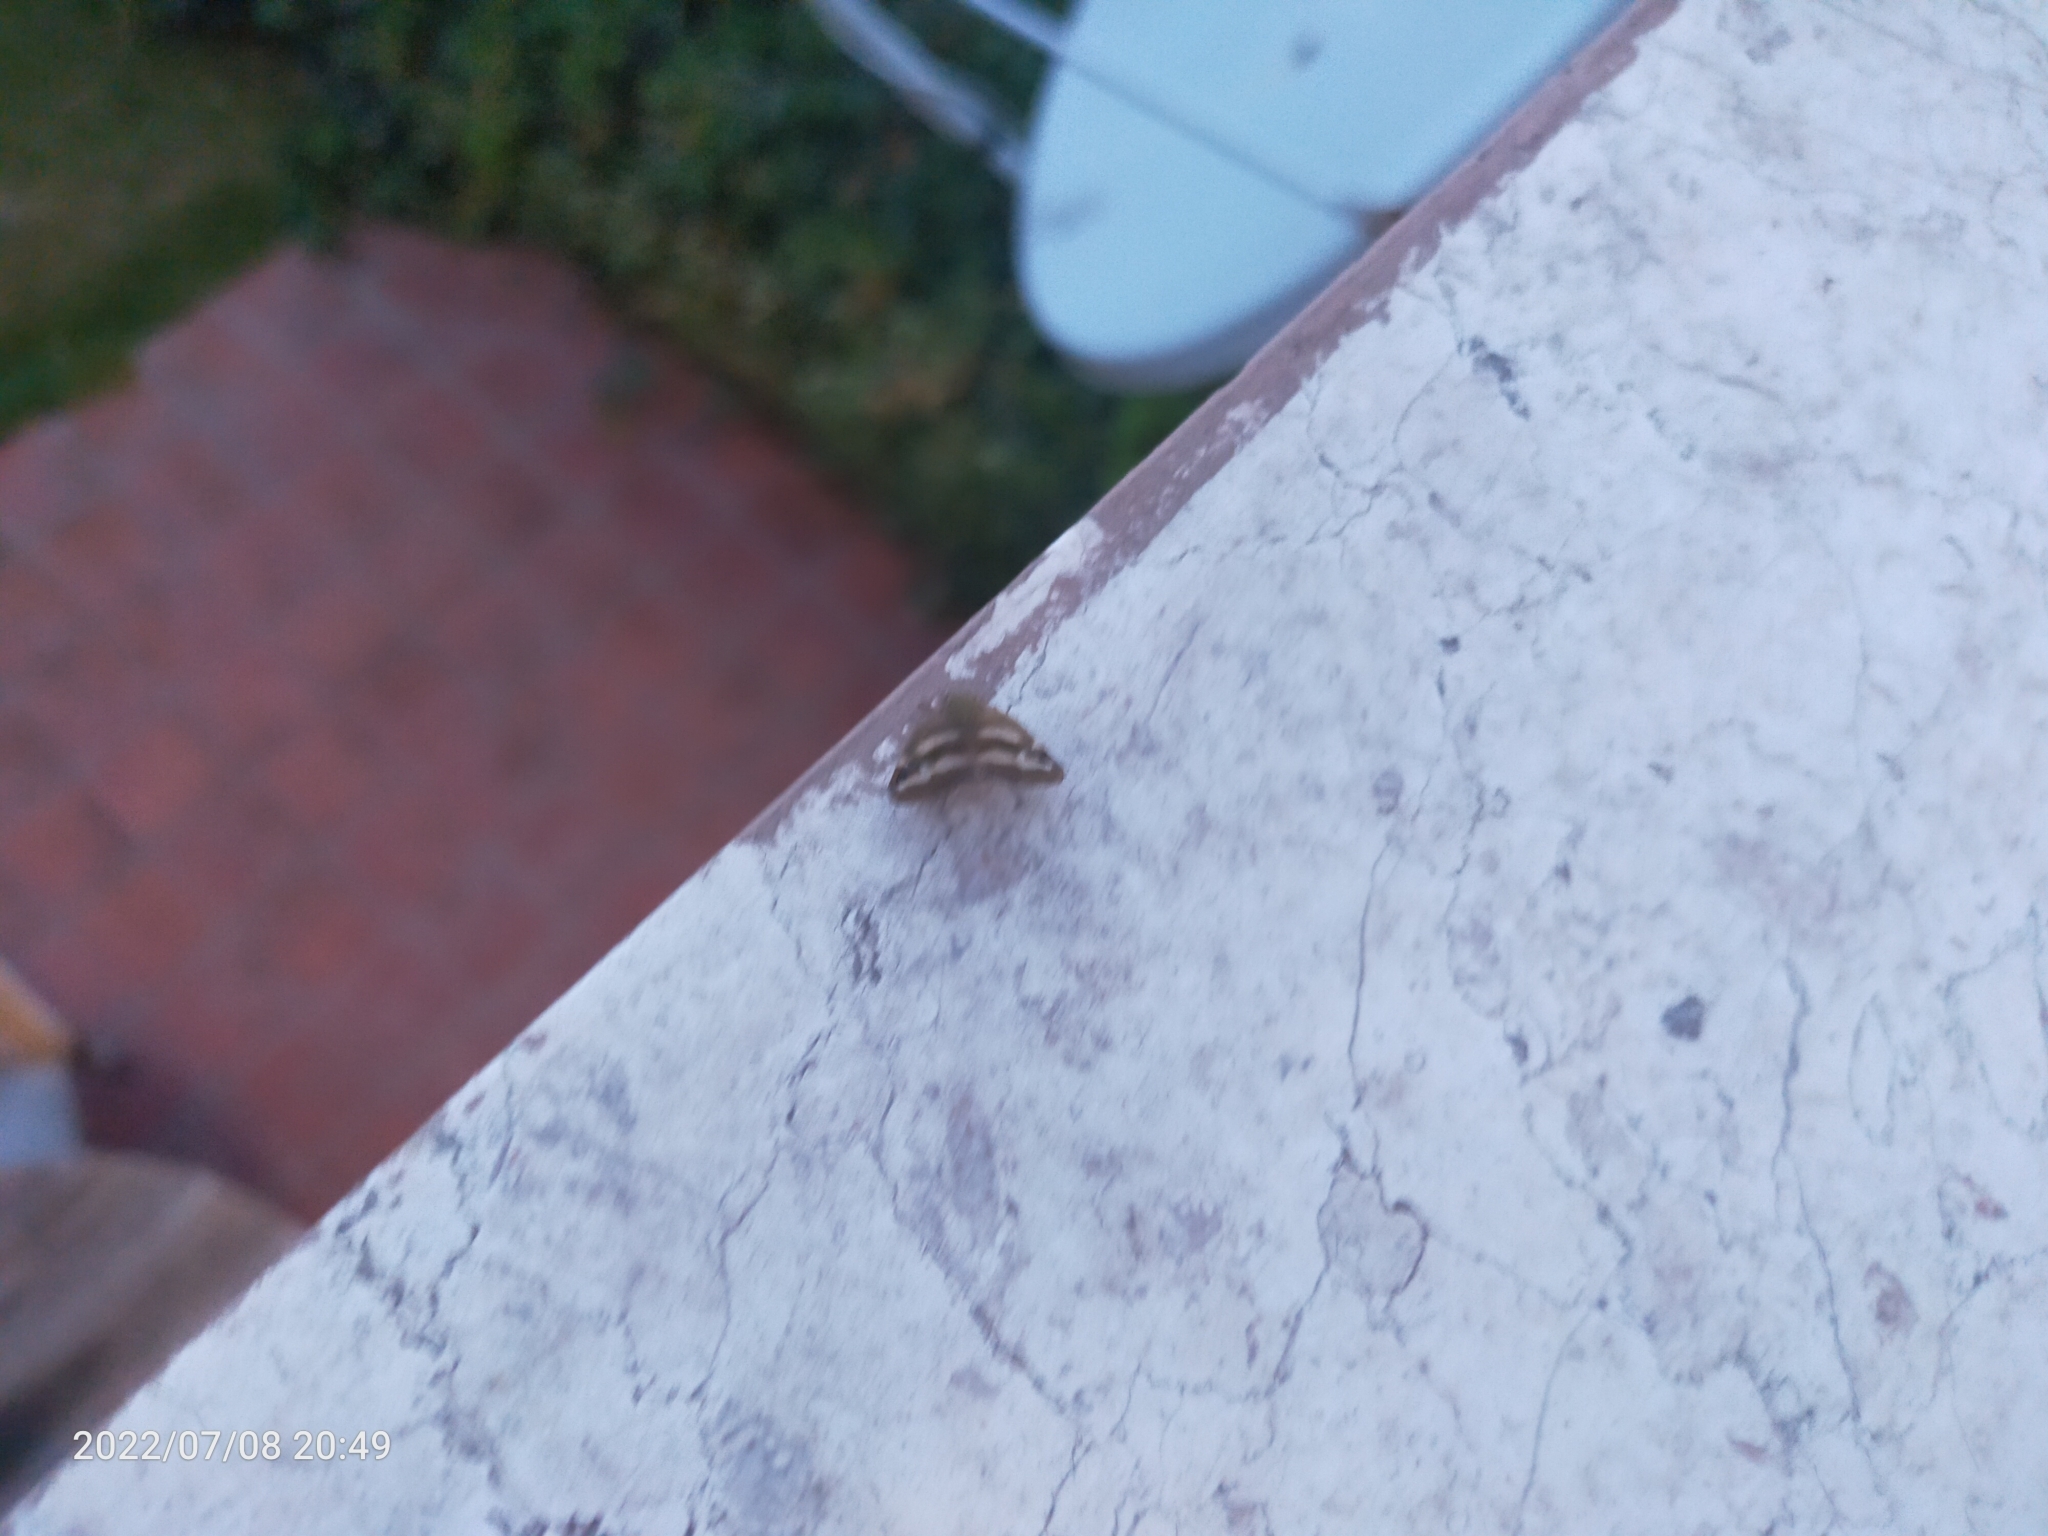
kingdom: Animalia
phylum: Arthropoda
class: Insecta
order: Hemiptera
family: Ricaniidae
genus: Orosanga
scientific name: Orosanga japonica
